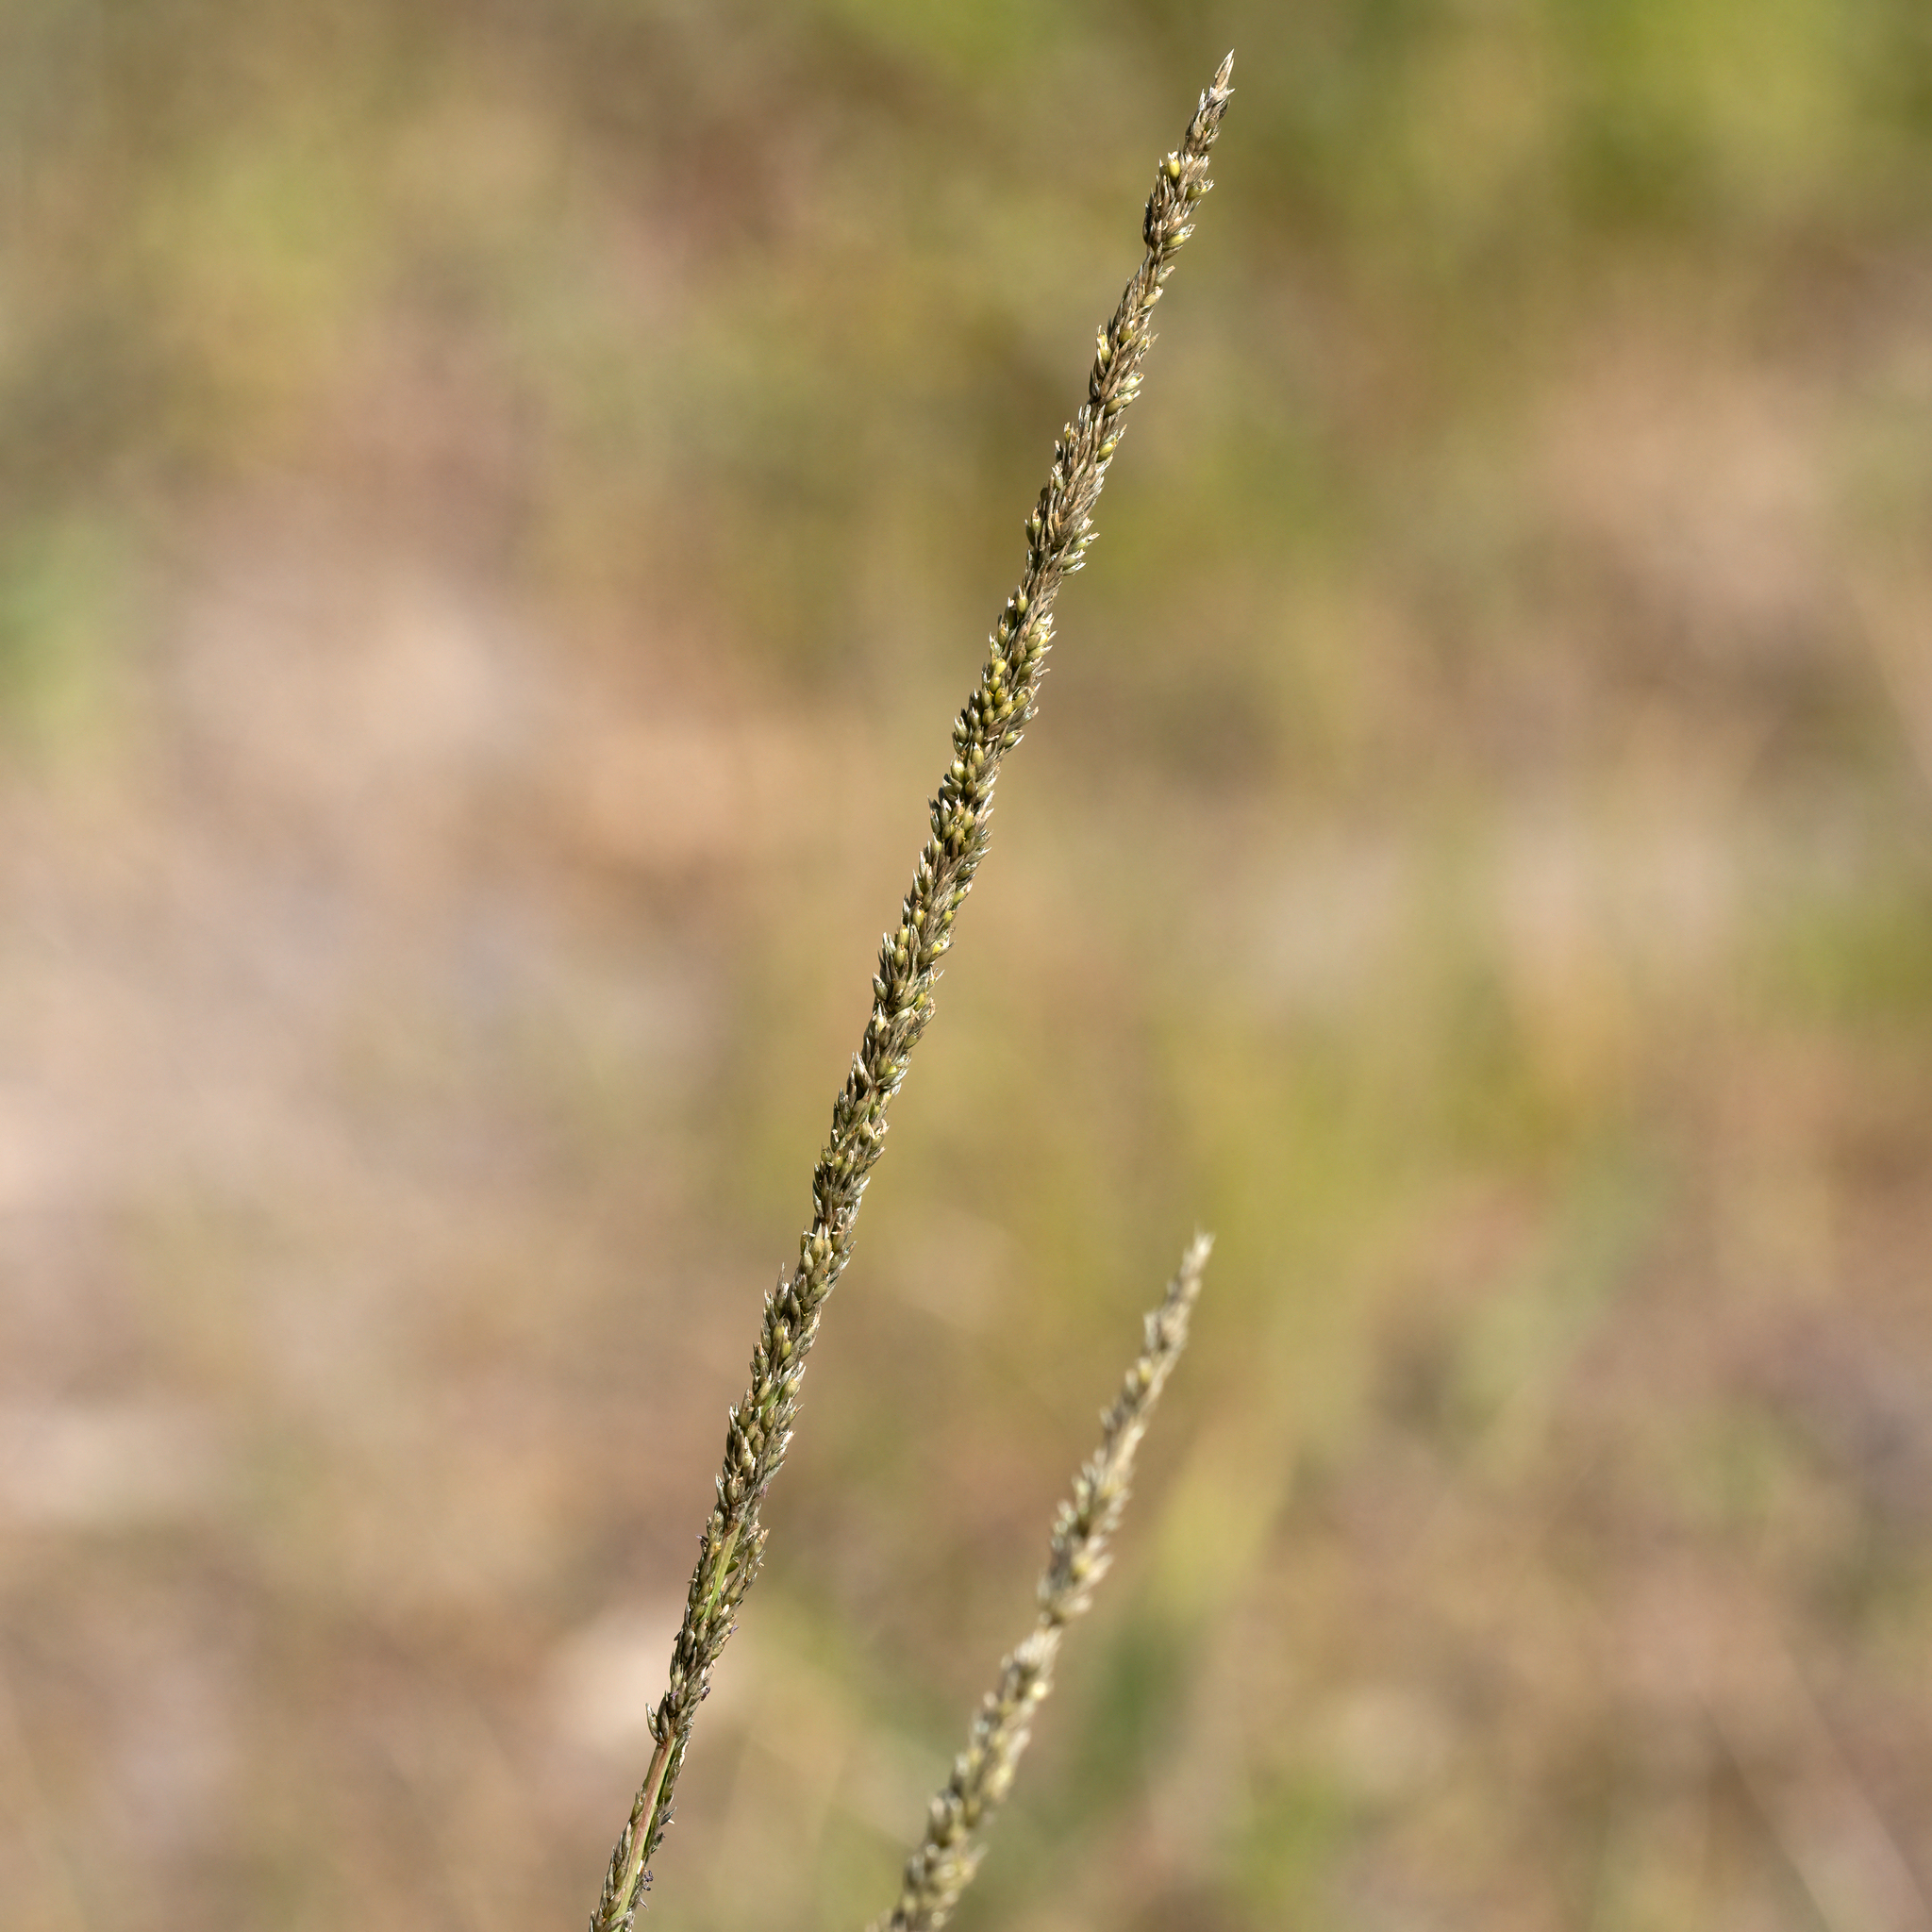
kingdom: Plantae
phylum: Tracheophyta
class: Liliopsida
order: Poales
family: Poaceae
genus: Sporobolus
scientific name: Sporobolus africanus
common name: African dropseed
